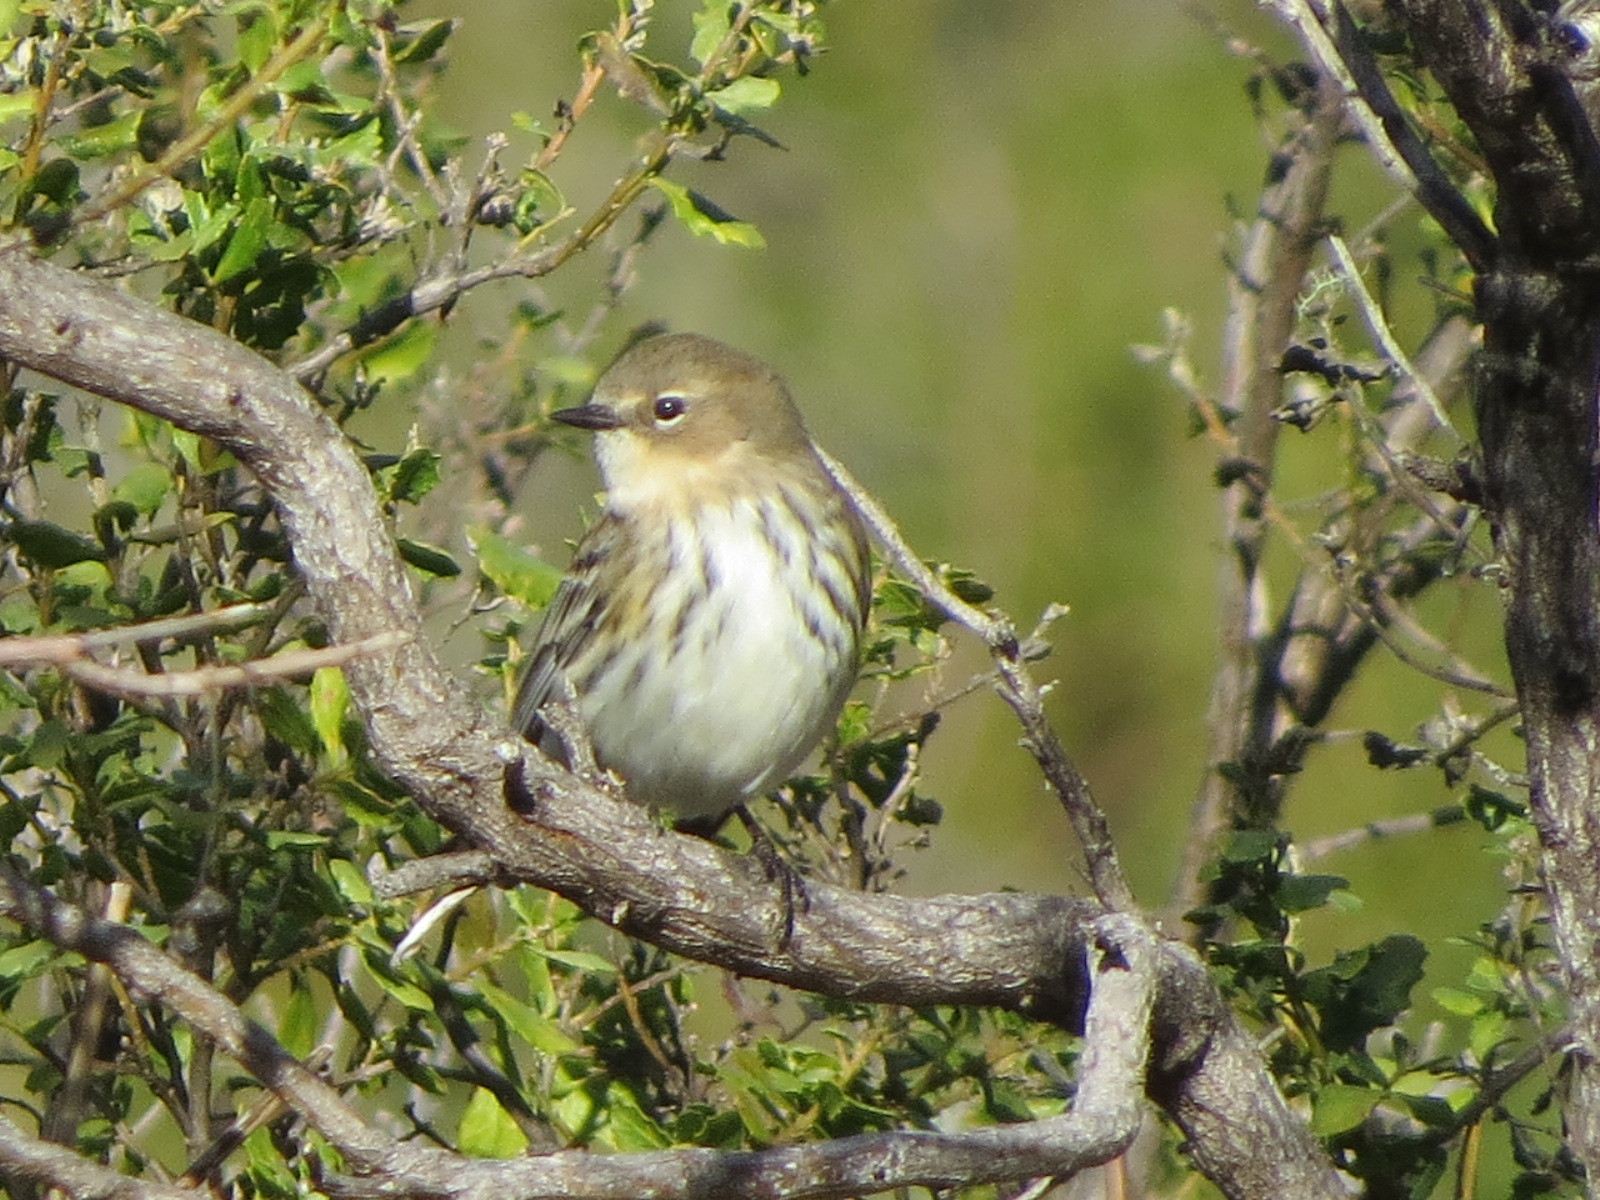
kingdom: Animalia
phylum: Chordata
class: Aves
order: Passeriformes
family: Parulidae
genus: Setophaga
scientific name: Setophaga coronata
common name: Myrtle warbler
